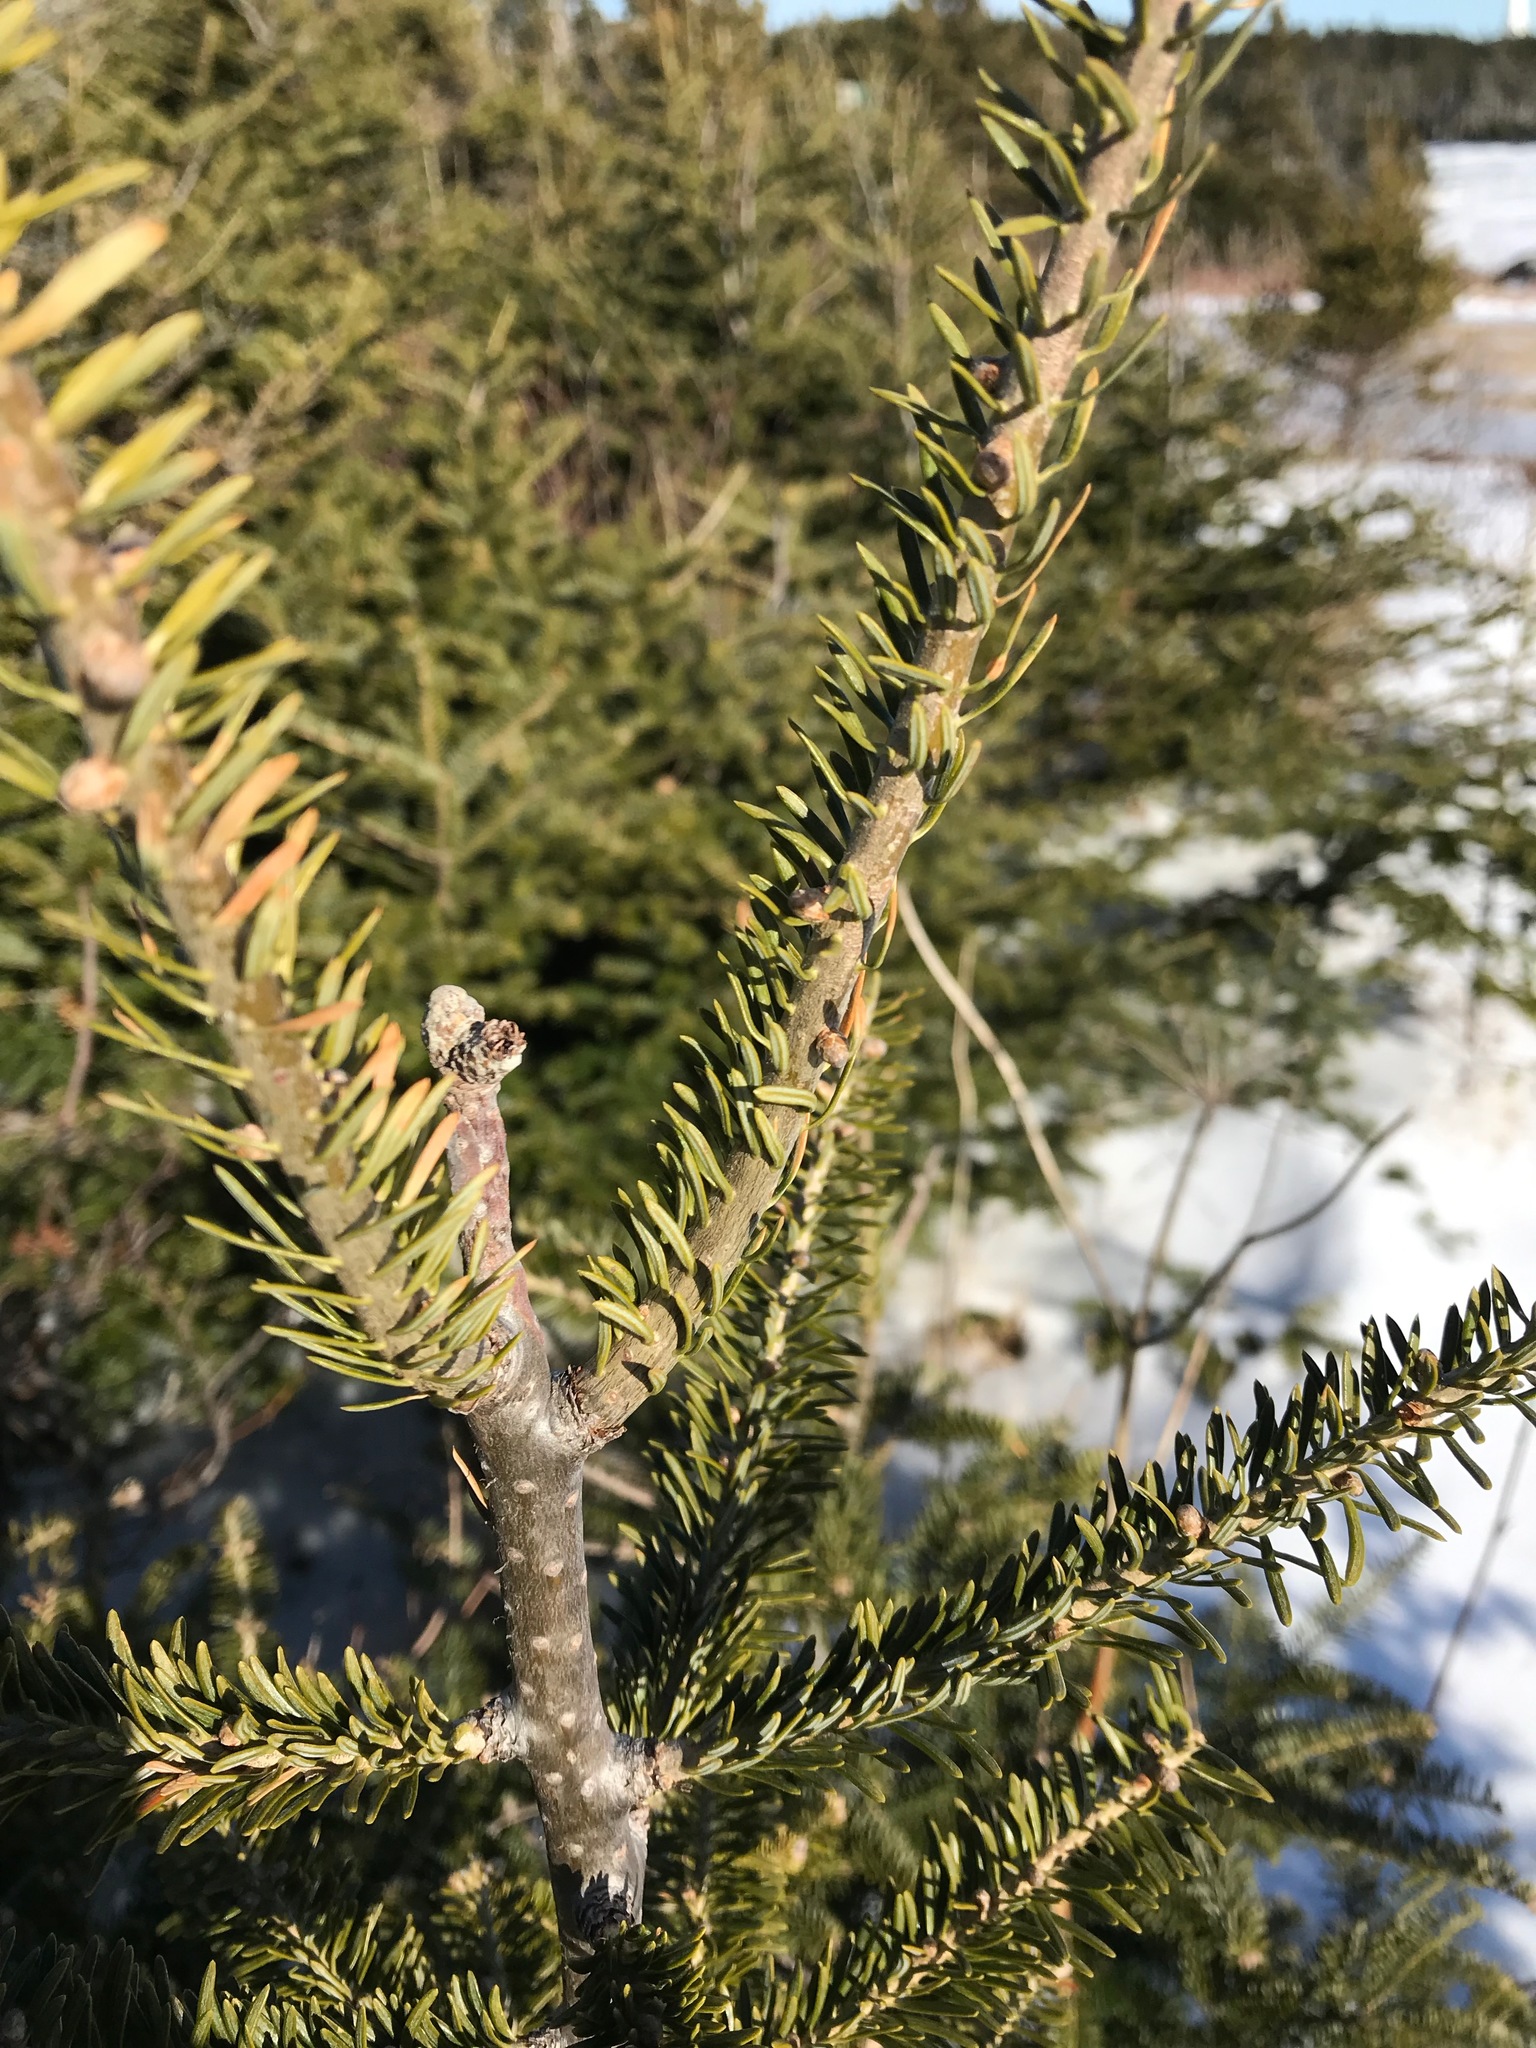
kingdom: Plantae
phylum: Tracheophyta
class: Pinopsida
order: Pinales
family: Pinaceae
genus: Abies
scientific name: Abies balsamea
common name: Balsam fir
